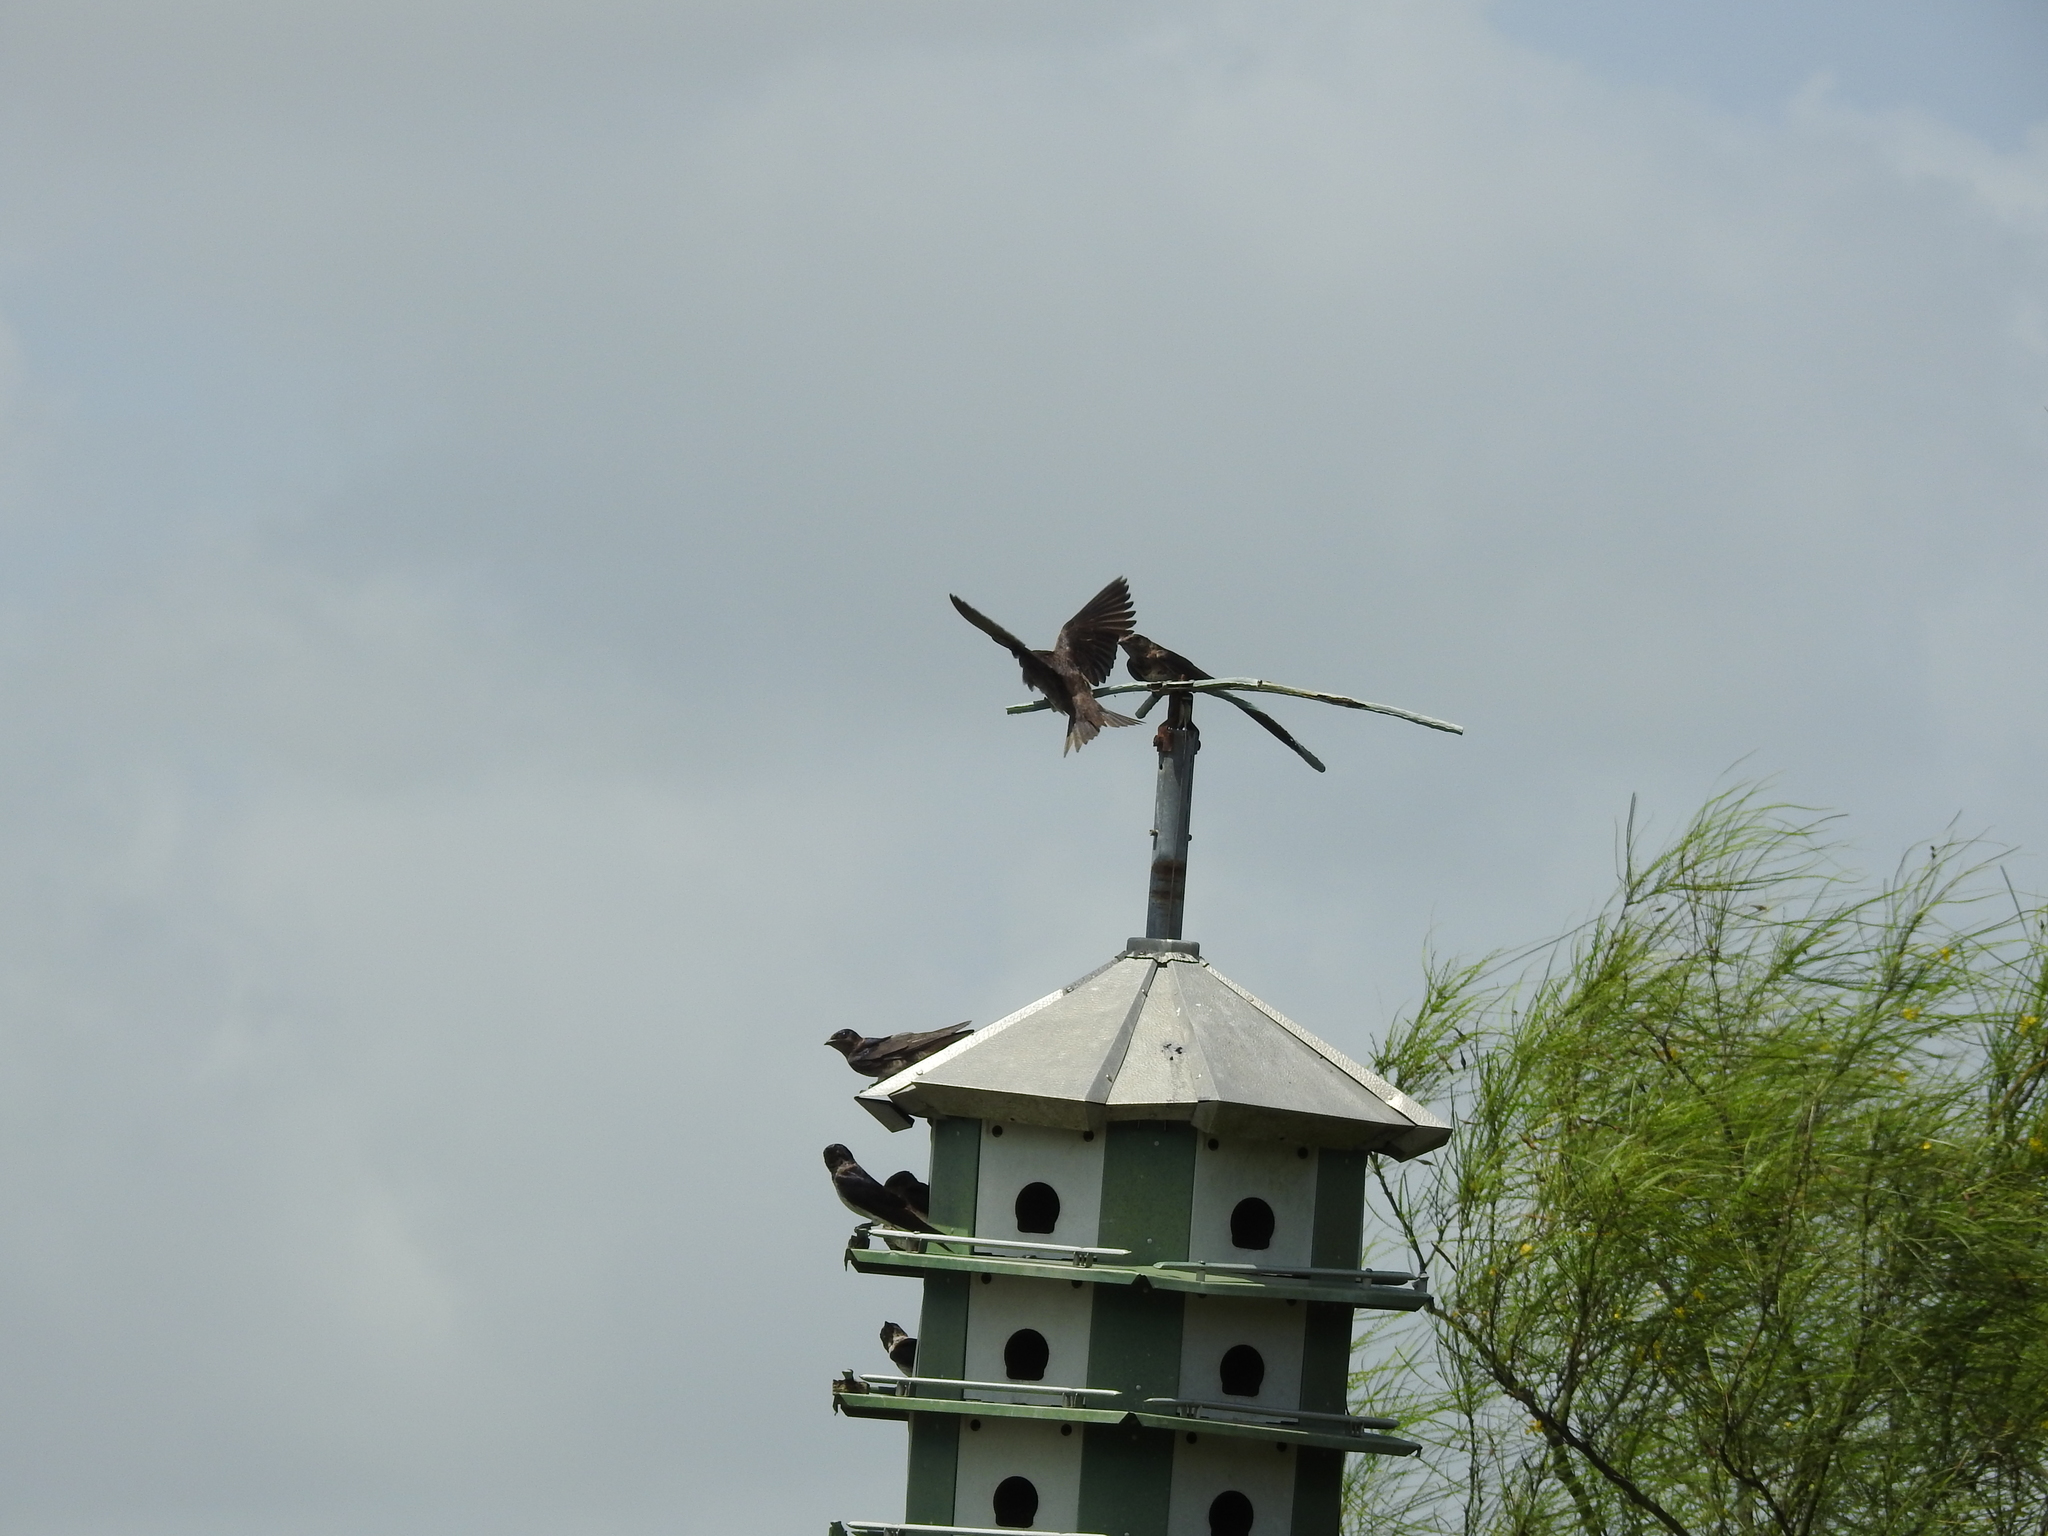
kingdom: Animalia
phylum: Chordata
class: Aves
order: Passeriformes
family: Hirundinidae
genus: Progne
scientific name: Progne subis
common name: Purple martin
